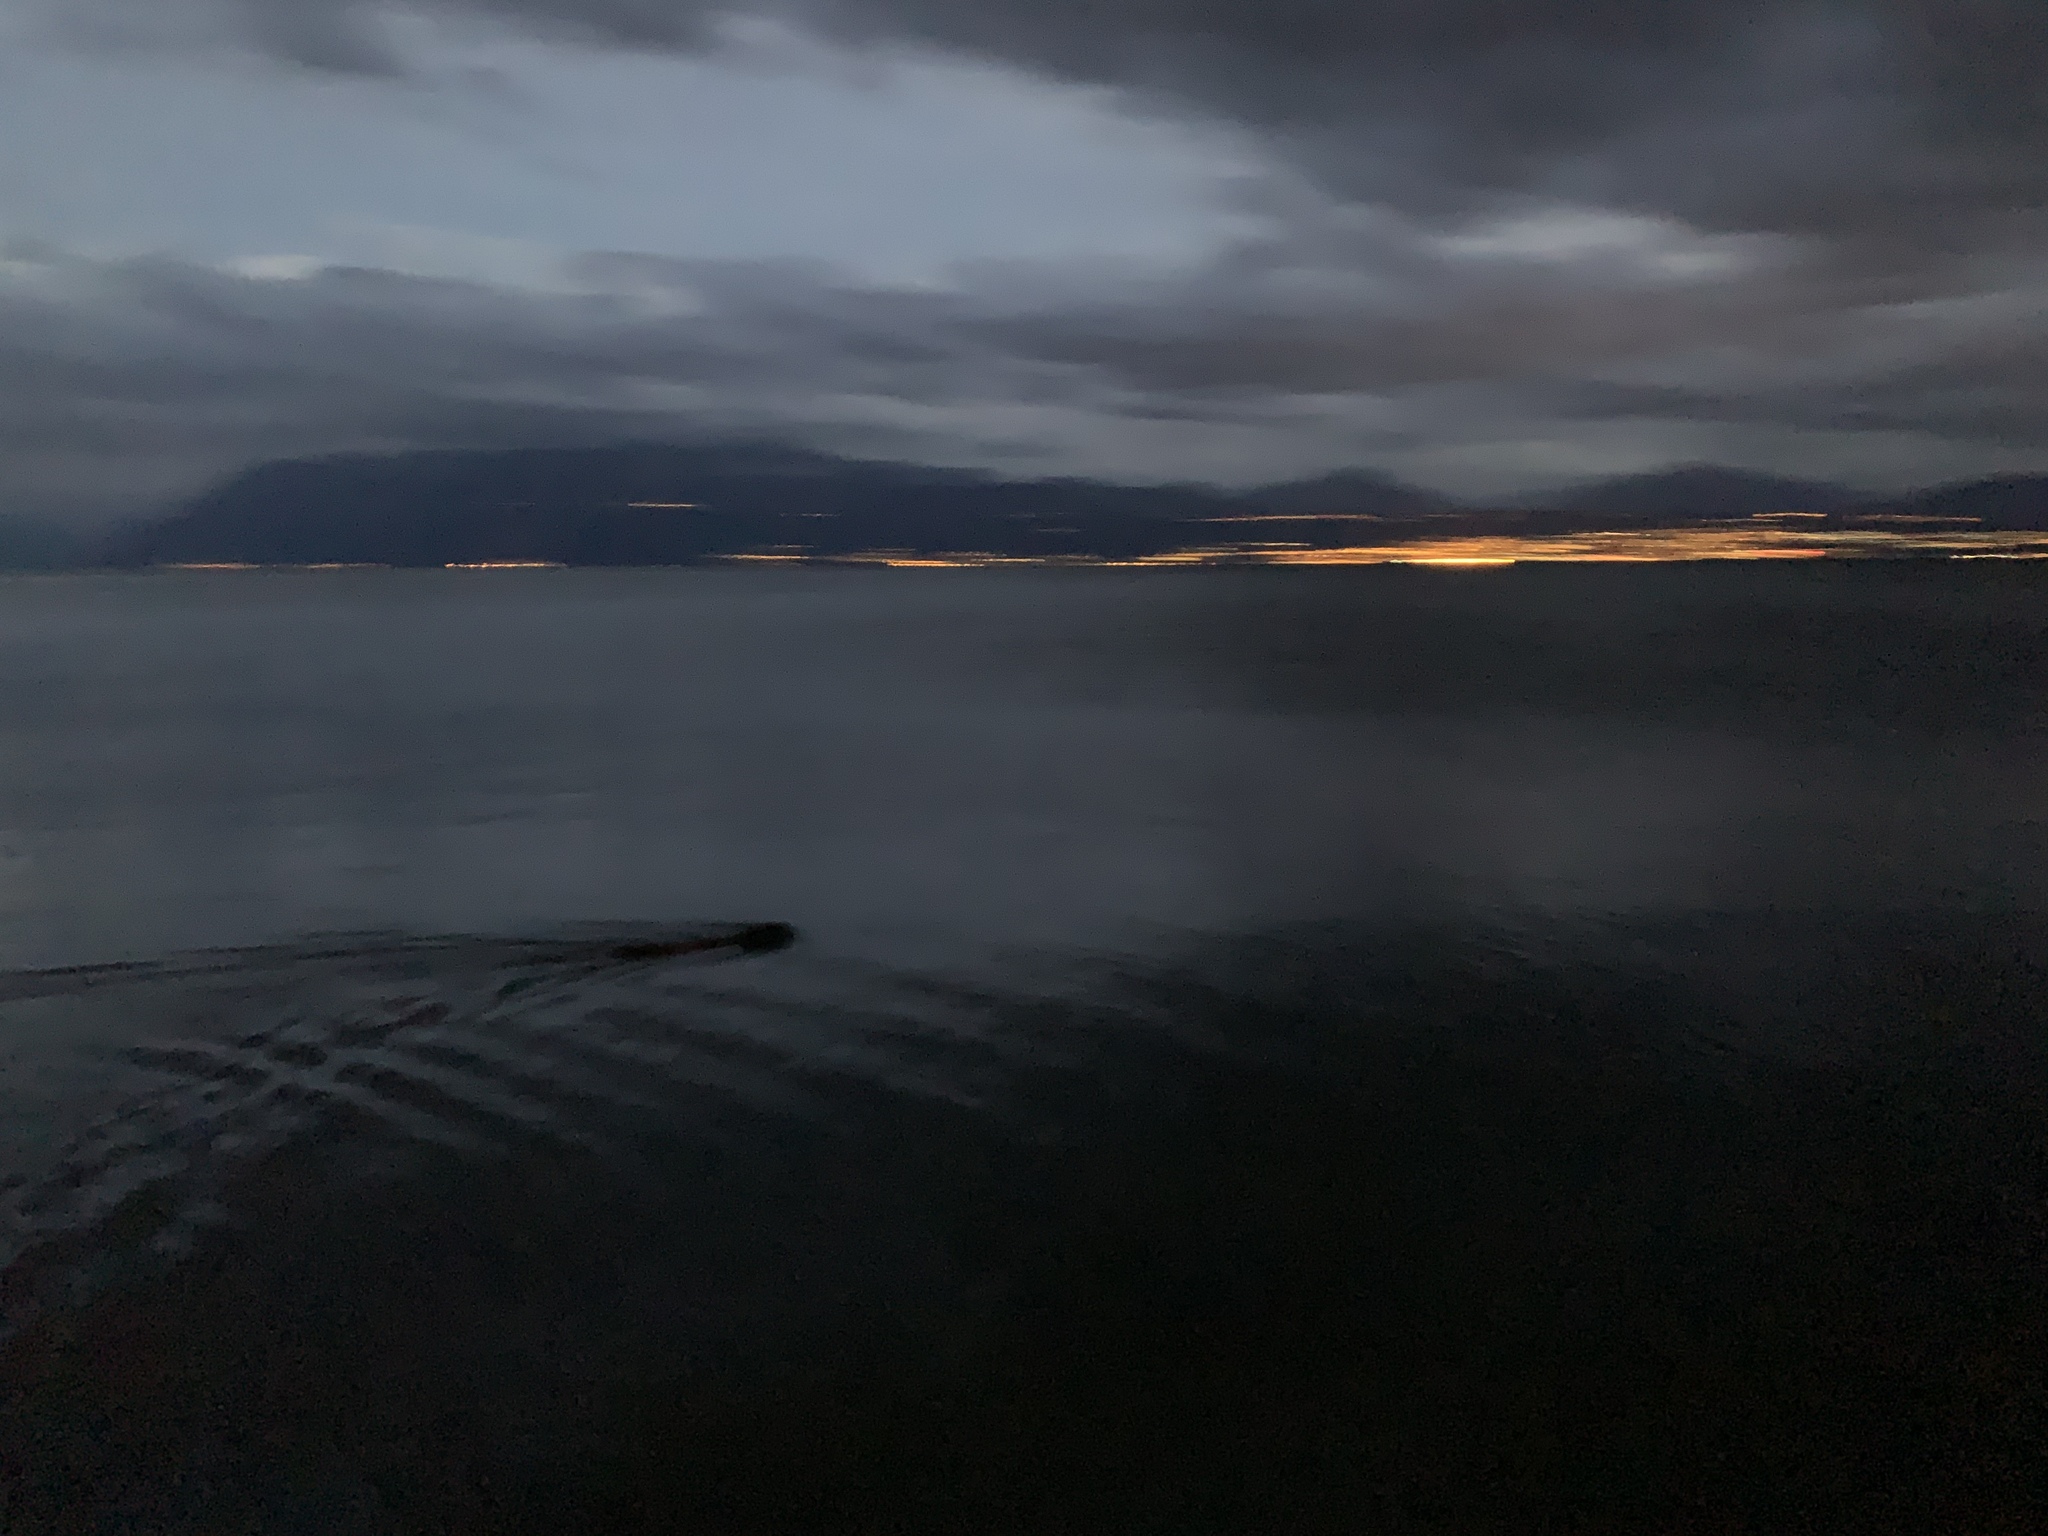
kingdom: Animalia
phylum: Chordata
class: Mammalia
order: Rodentia
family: Castoridae
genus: Castor
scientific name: Castor fiber
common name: Eurasian beaver
